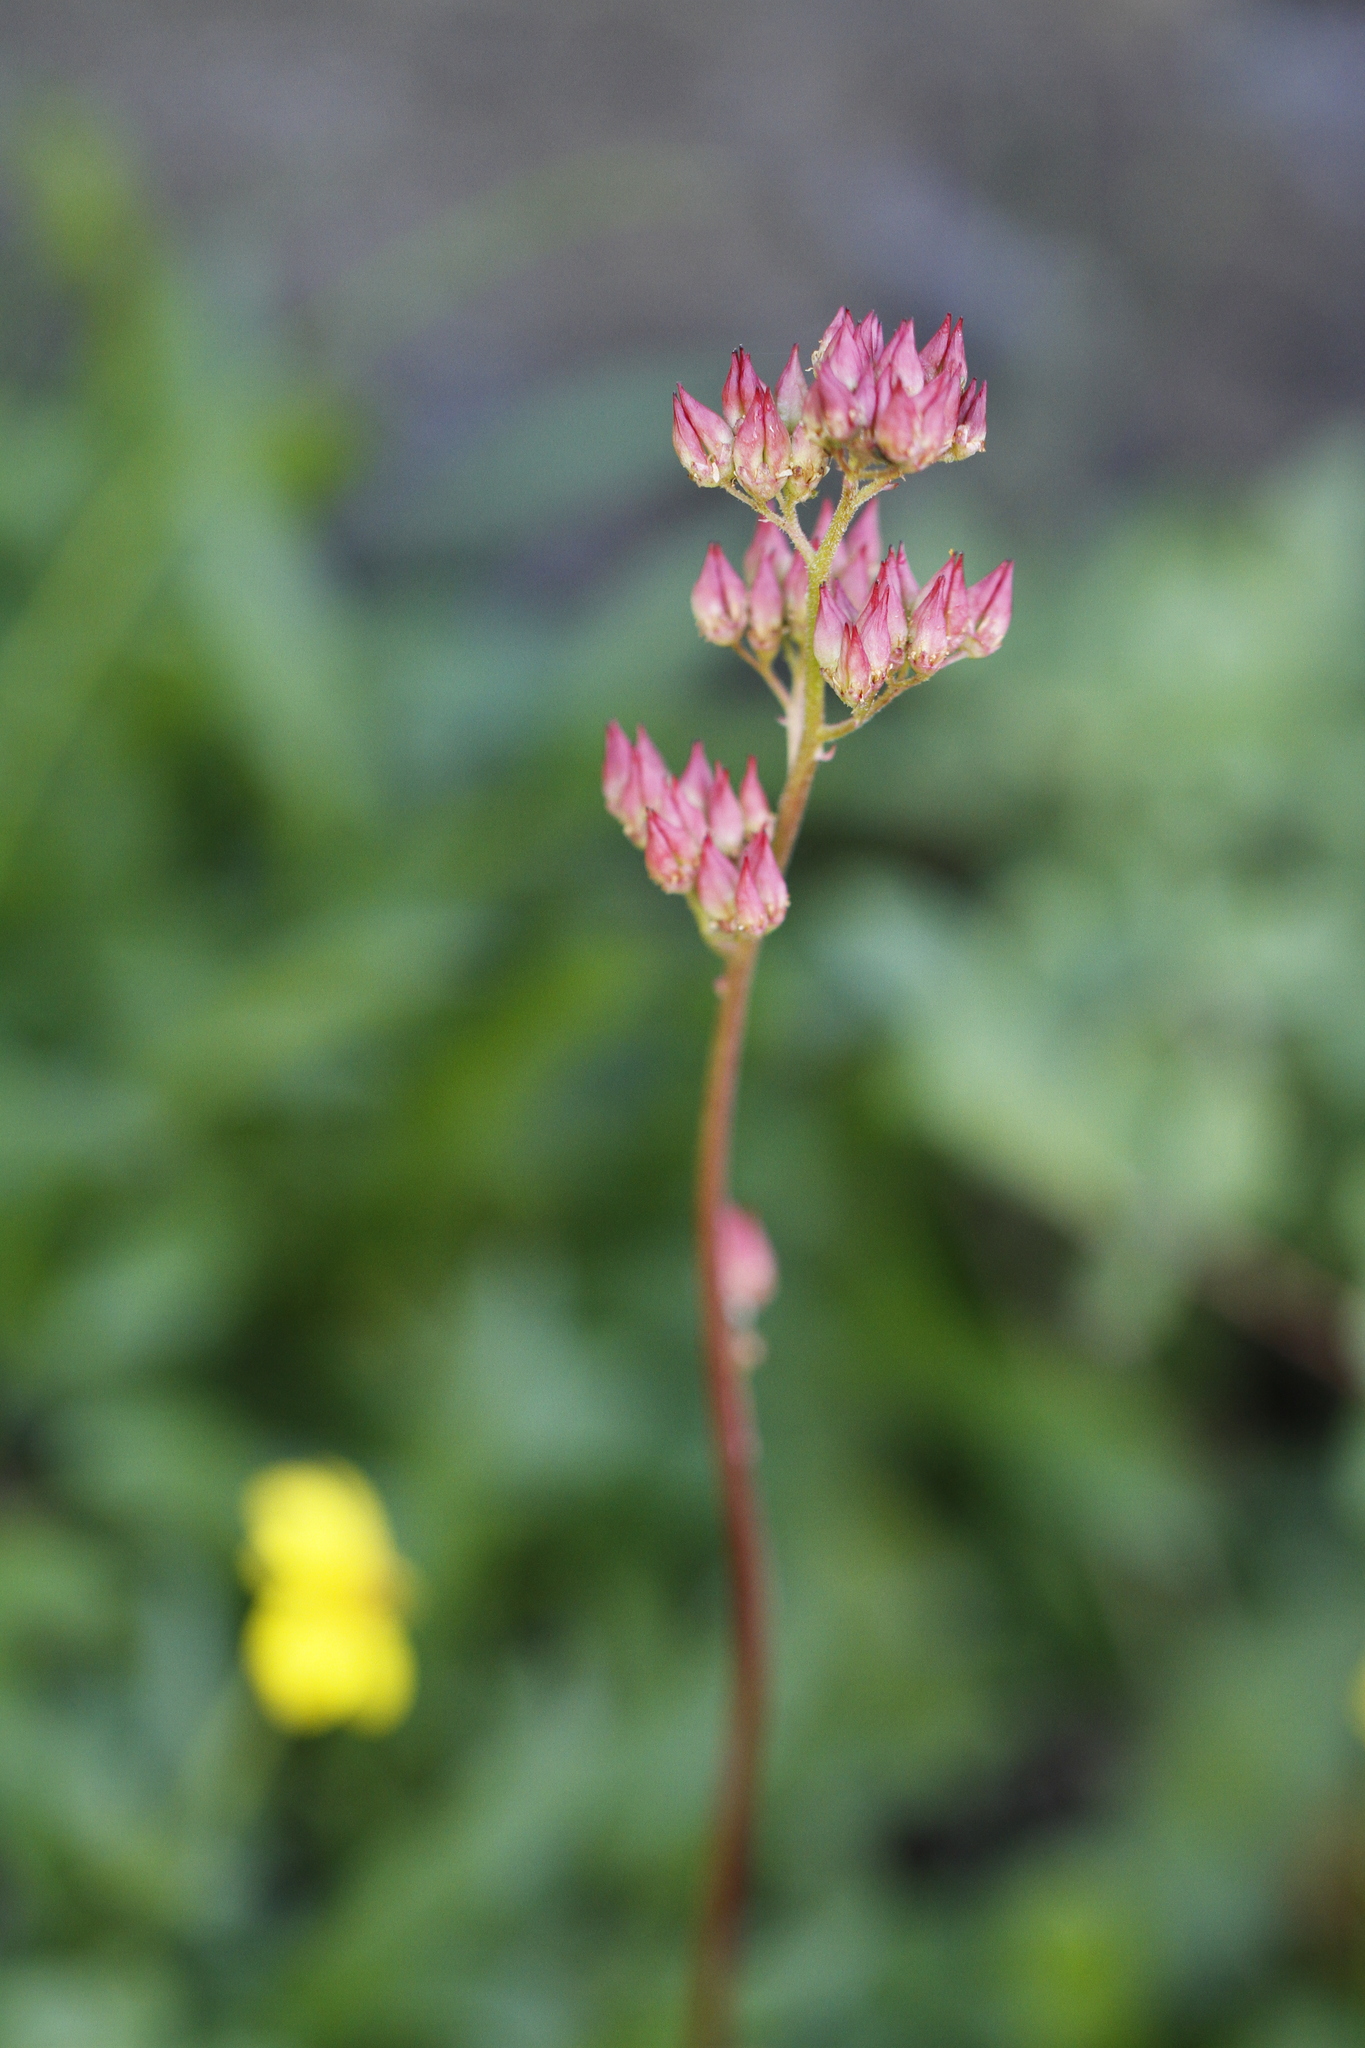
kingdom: Plantae
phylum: Tracheophyta
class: Magnoliopsida
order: Saxifragales
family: Saxifragaceae
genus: Leptarrhena
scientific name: Leptarrhena pyrolifolia
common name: Leatherleaf-saxifrage
